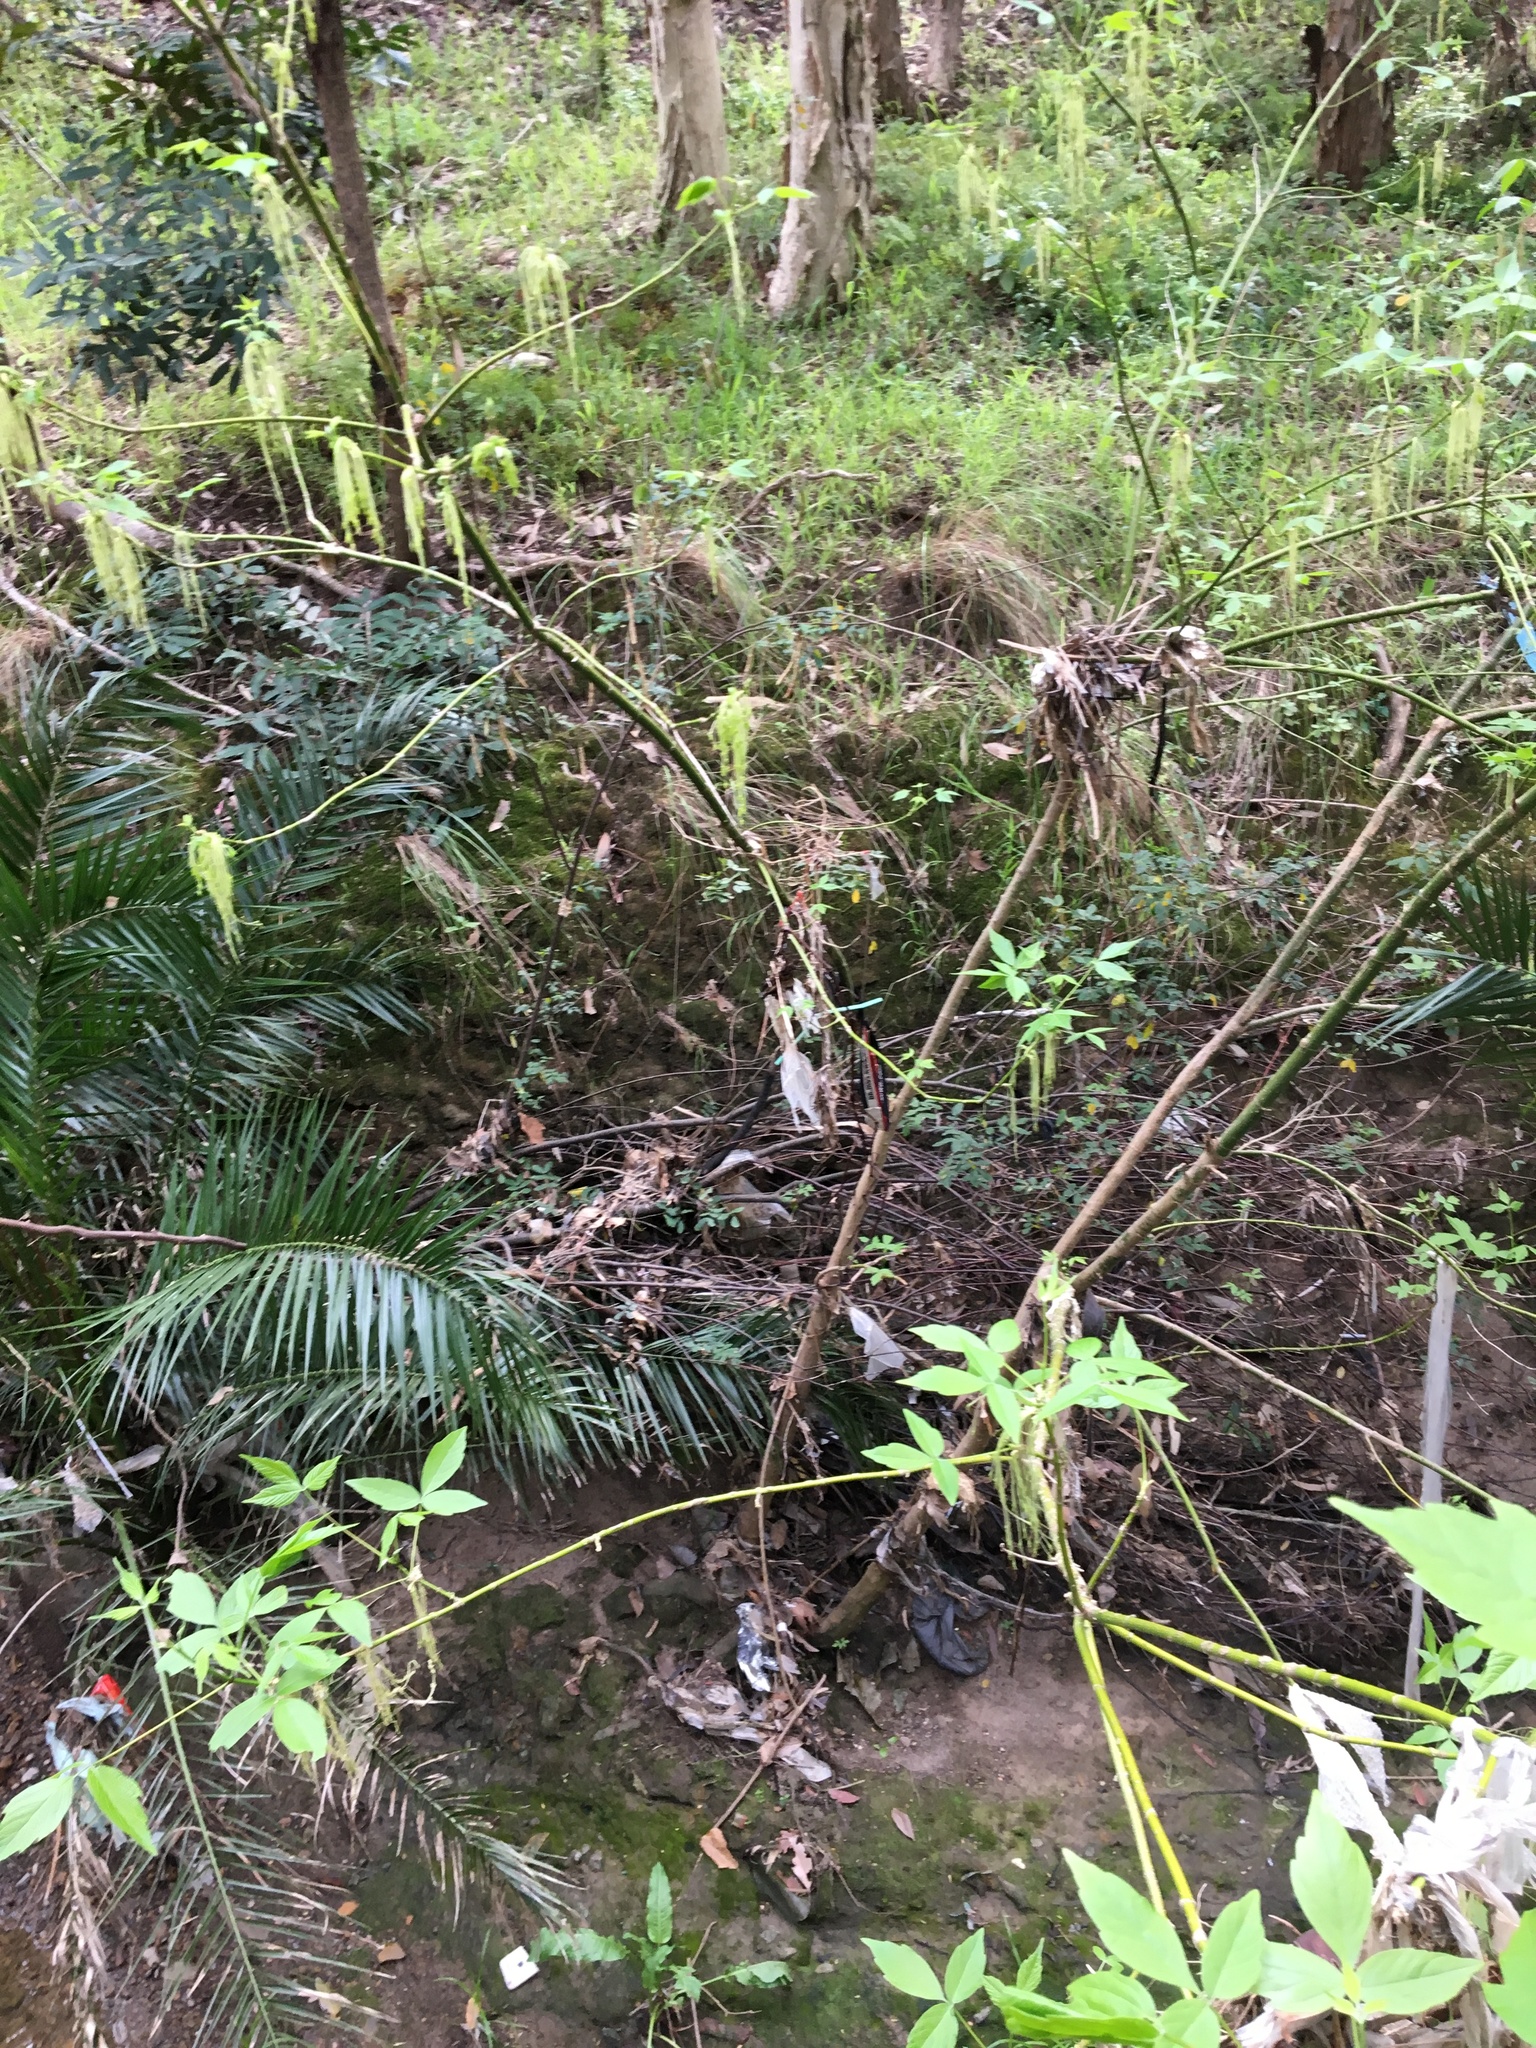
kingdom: Plantae
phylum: Tracheophyta
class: Magnoliopsida
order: Sapindales
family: Sapindaceae
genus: Acer
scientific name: Acer negundo
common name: Ashleaf maple
